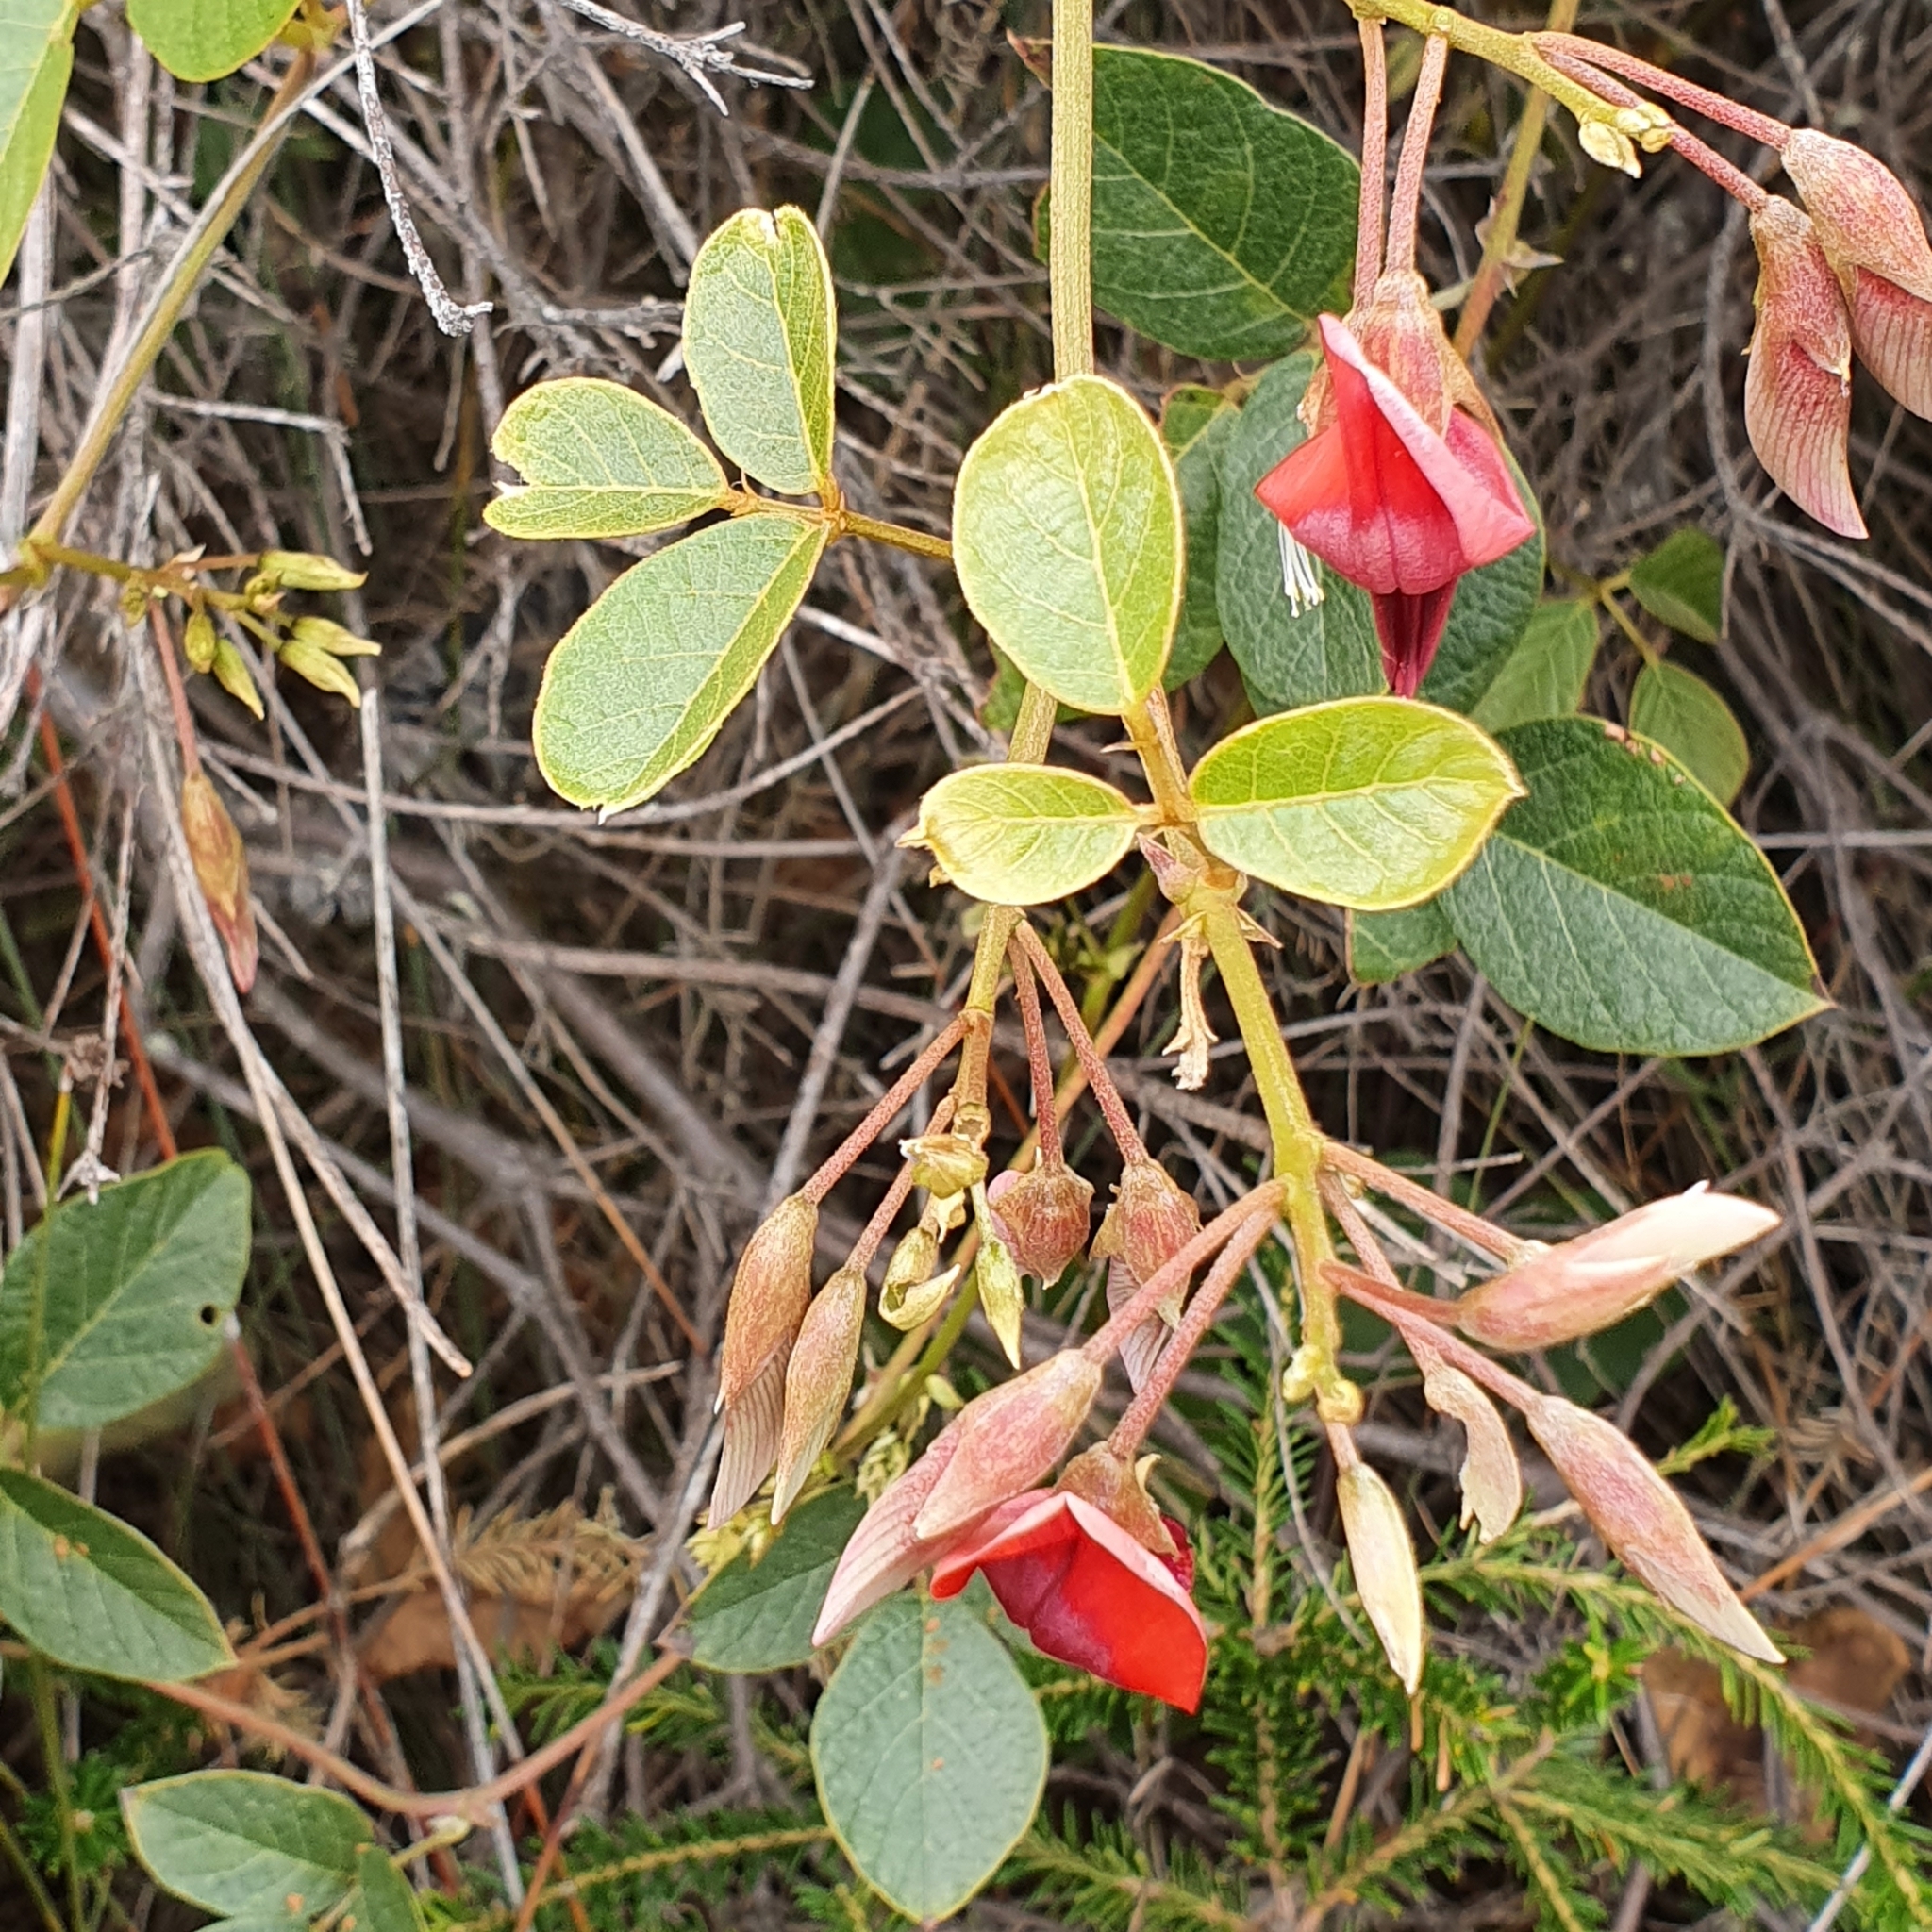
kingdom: Plantae
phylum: Tracheophyta
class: Magnoliopsida
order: Fabales
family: Fabaceae
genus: Kennedia
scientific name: Kennedia rubicunda
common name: Red kennedy-pea
